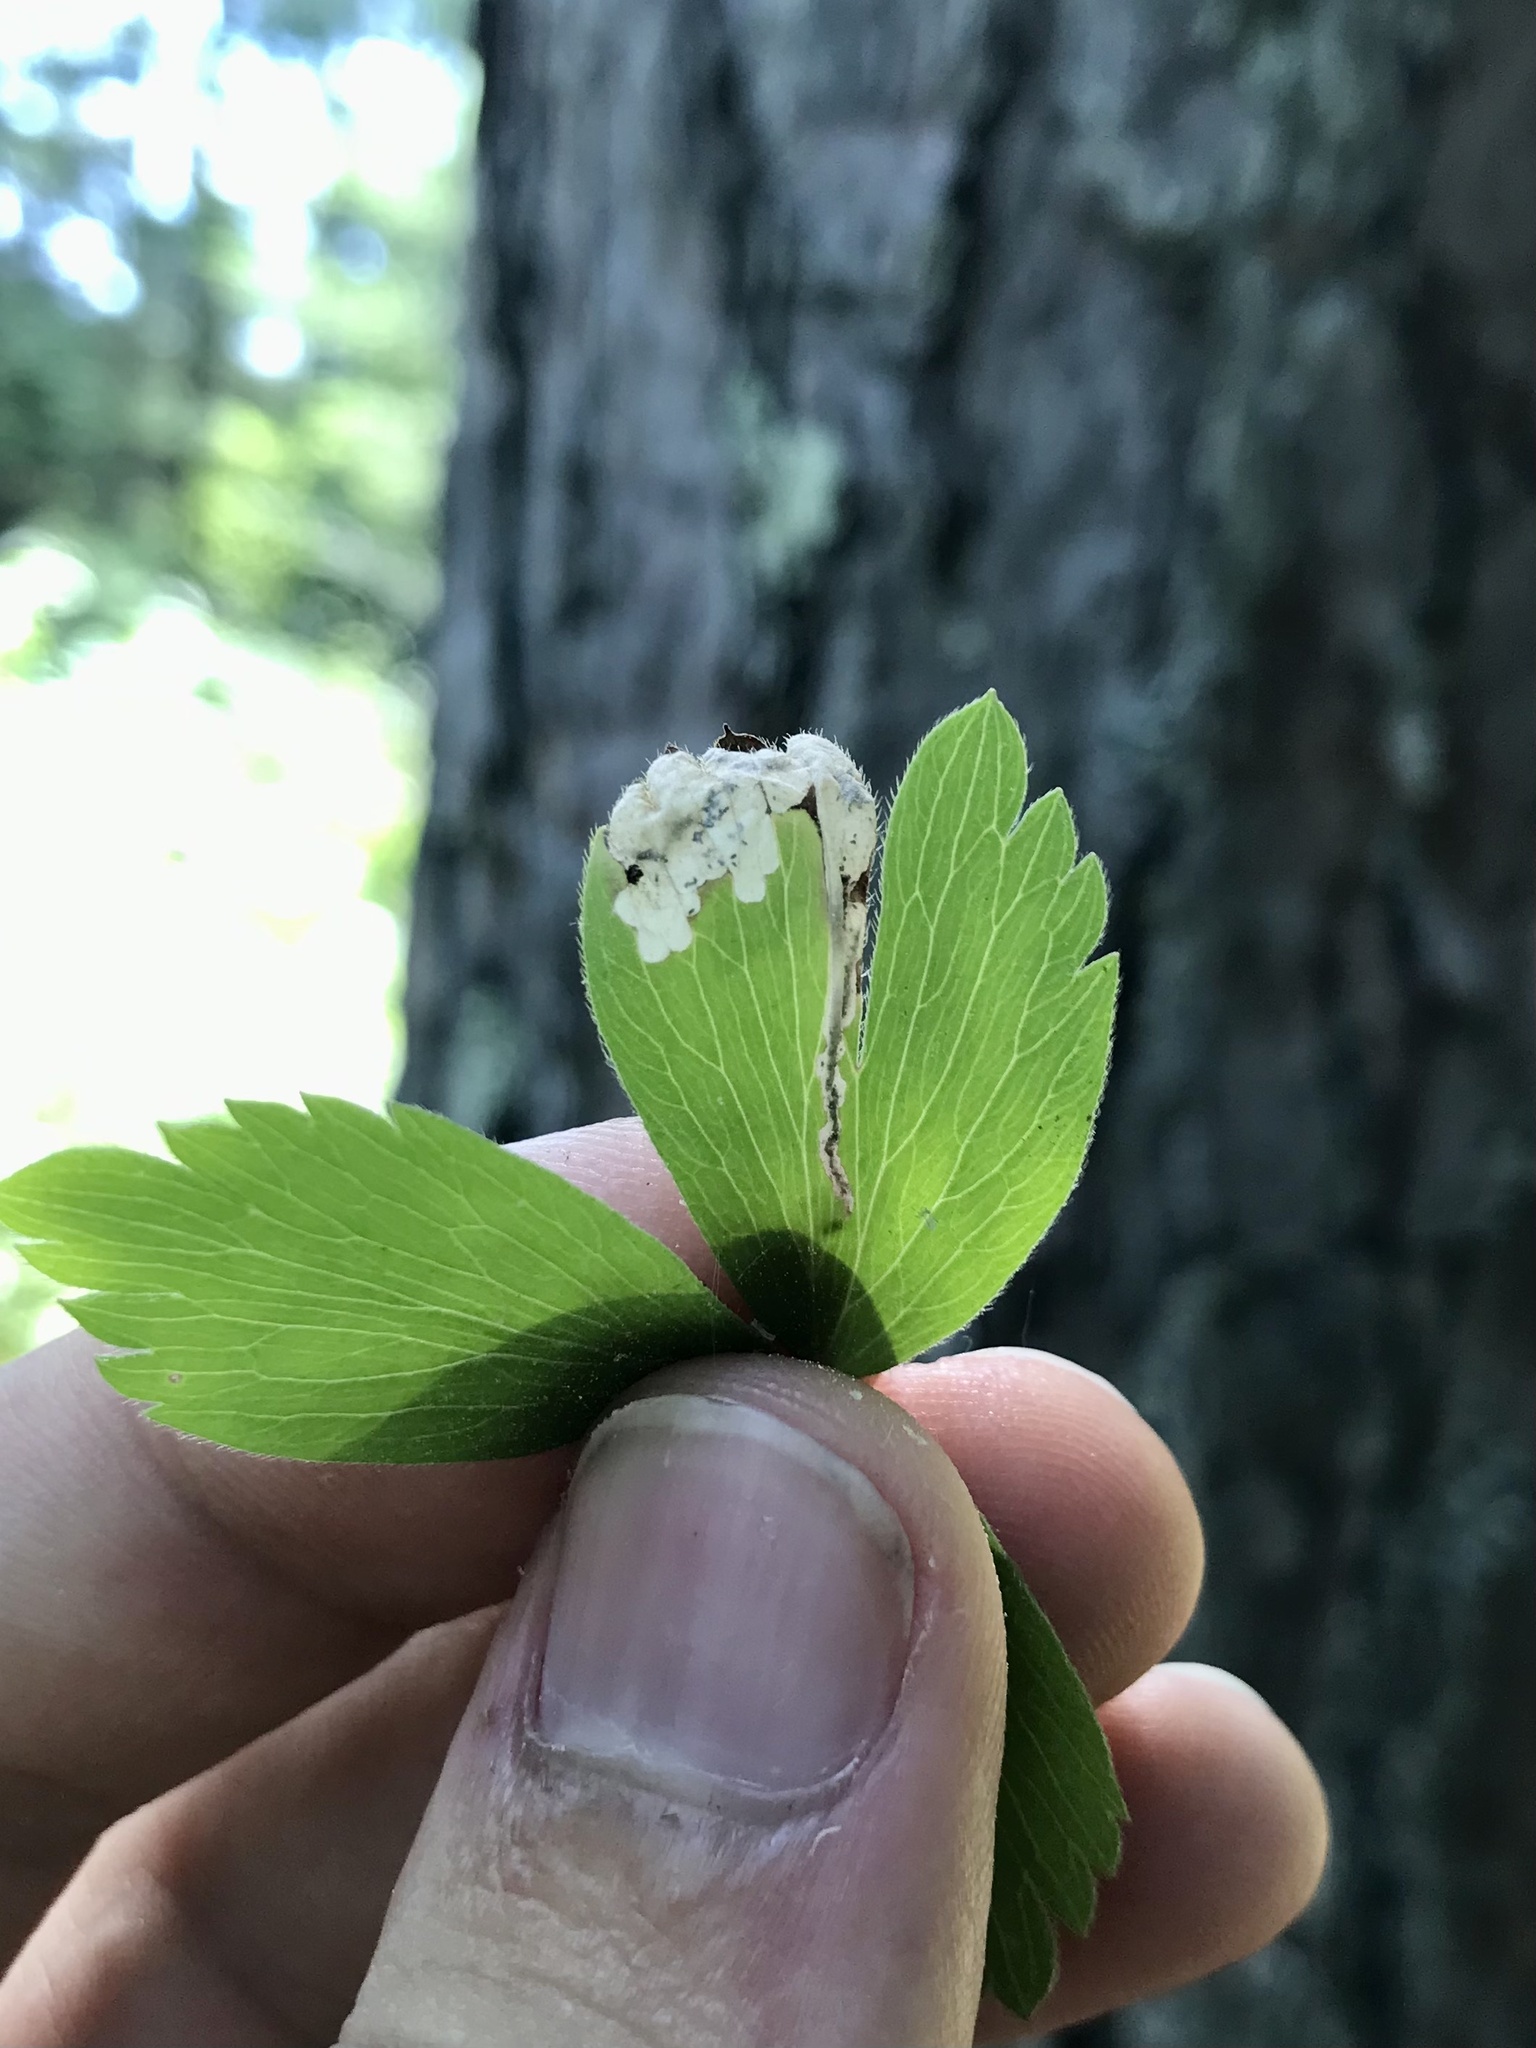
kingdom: Animalia
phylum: Arthropoda
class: Insecta
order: Hymenoptera
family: Tenthredinidae
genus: Pseudodineura
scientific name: Pseudodineura parva
